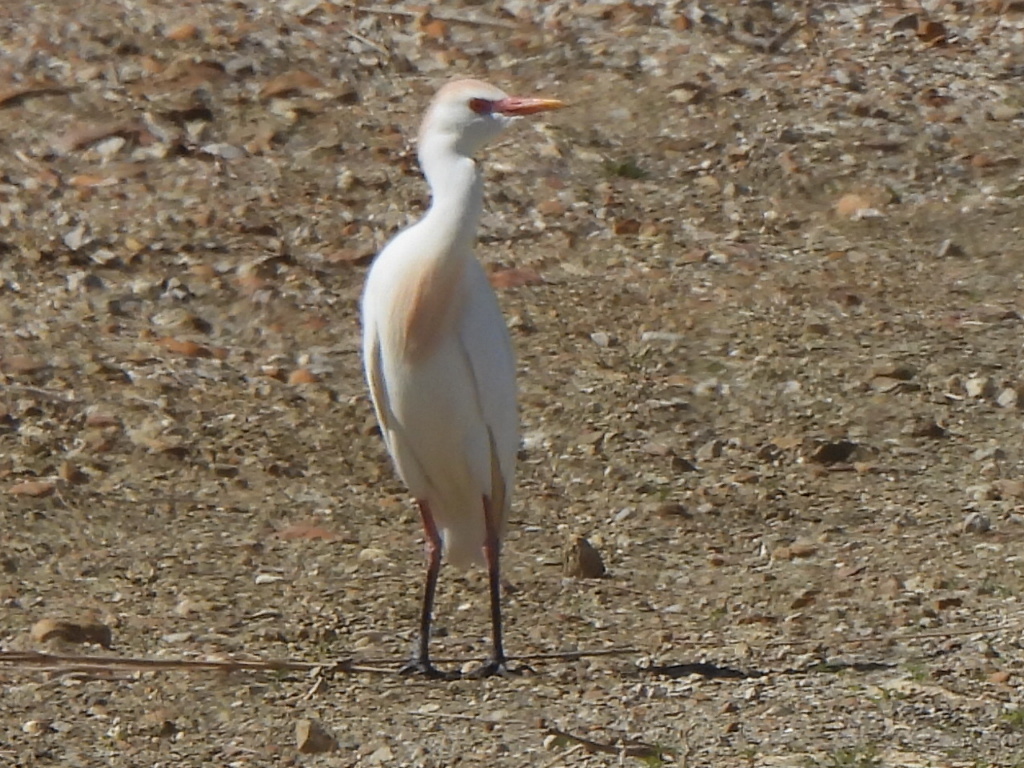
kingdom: Animalia
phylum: Chordata
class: Aves
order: Pelecaniformes
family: Ardeidae
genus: Bubulcus
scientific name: Bubulcus ibis
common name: Cattle egret
